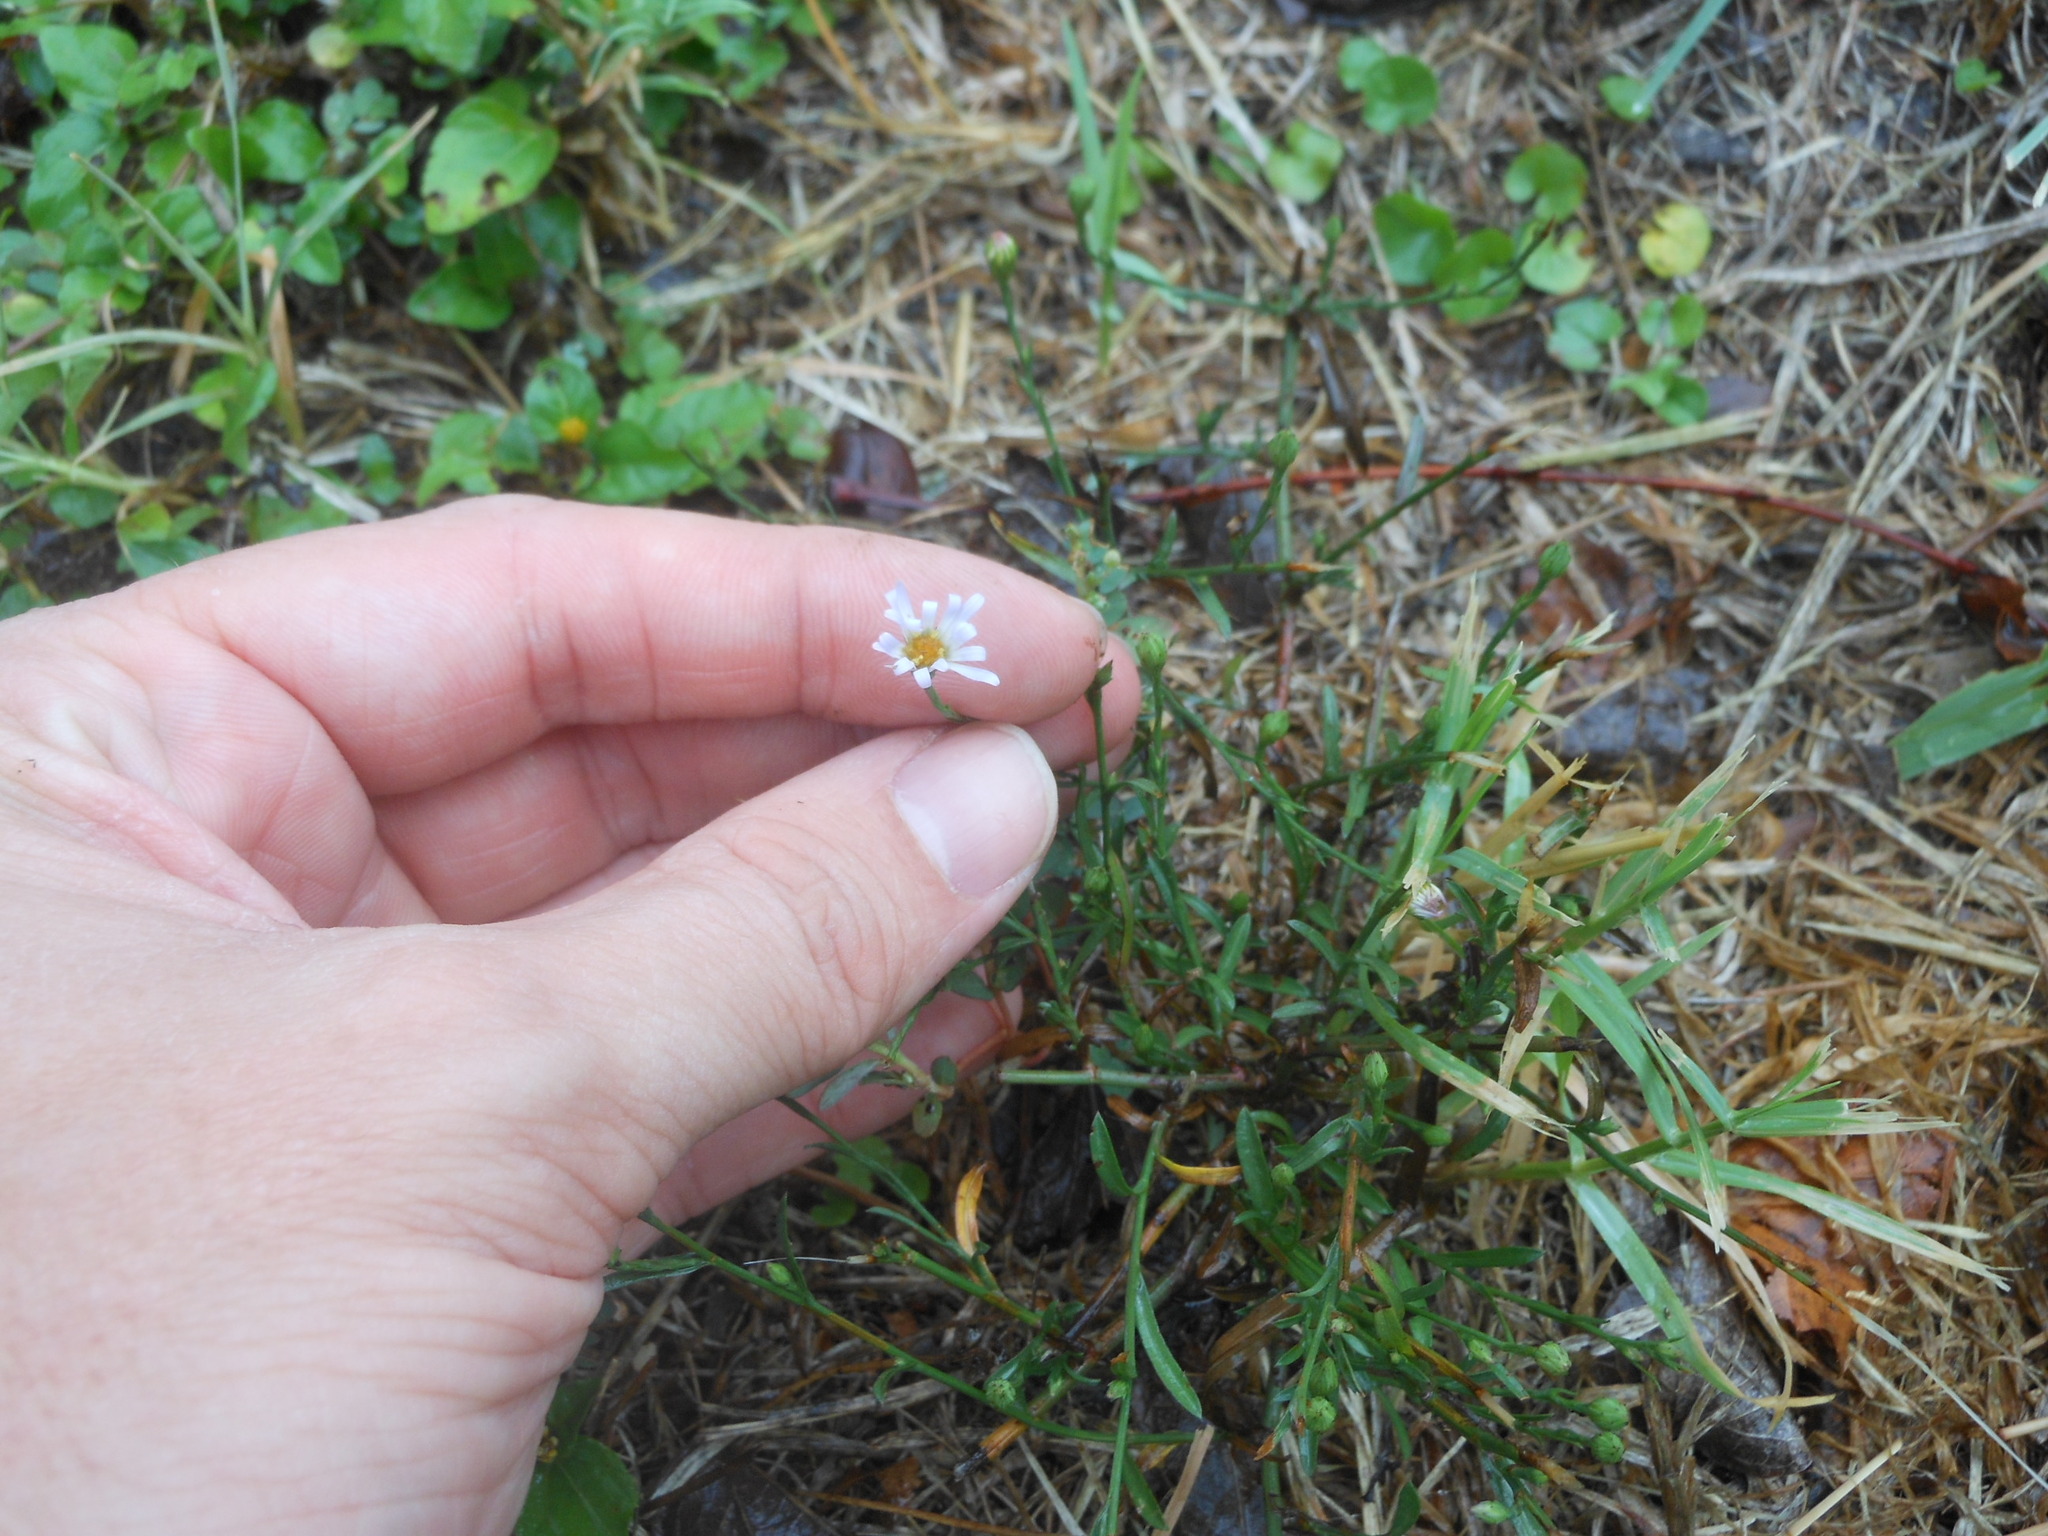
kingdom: Plantae
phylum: Tracheophyta
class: Magnoliopsida
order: Asterales
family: Asteraceae
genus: Symphyotrichum
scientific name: Symphyotrichum divaricatum
